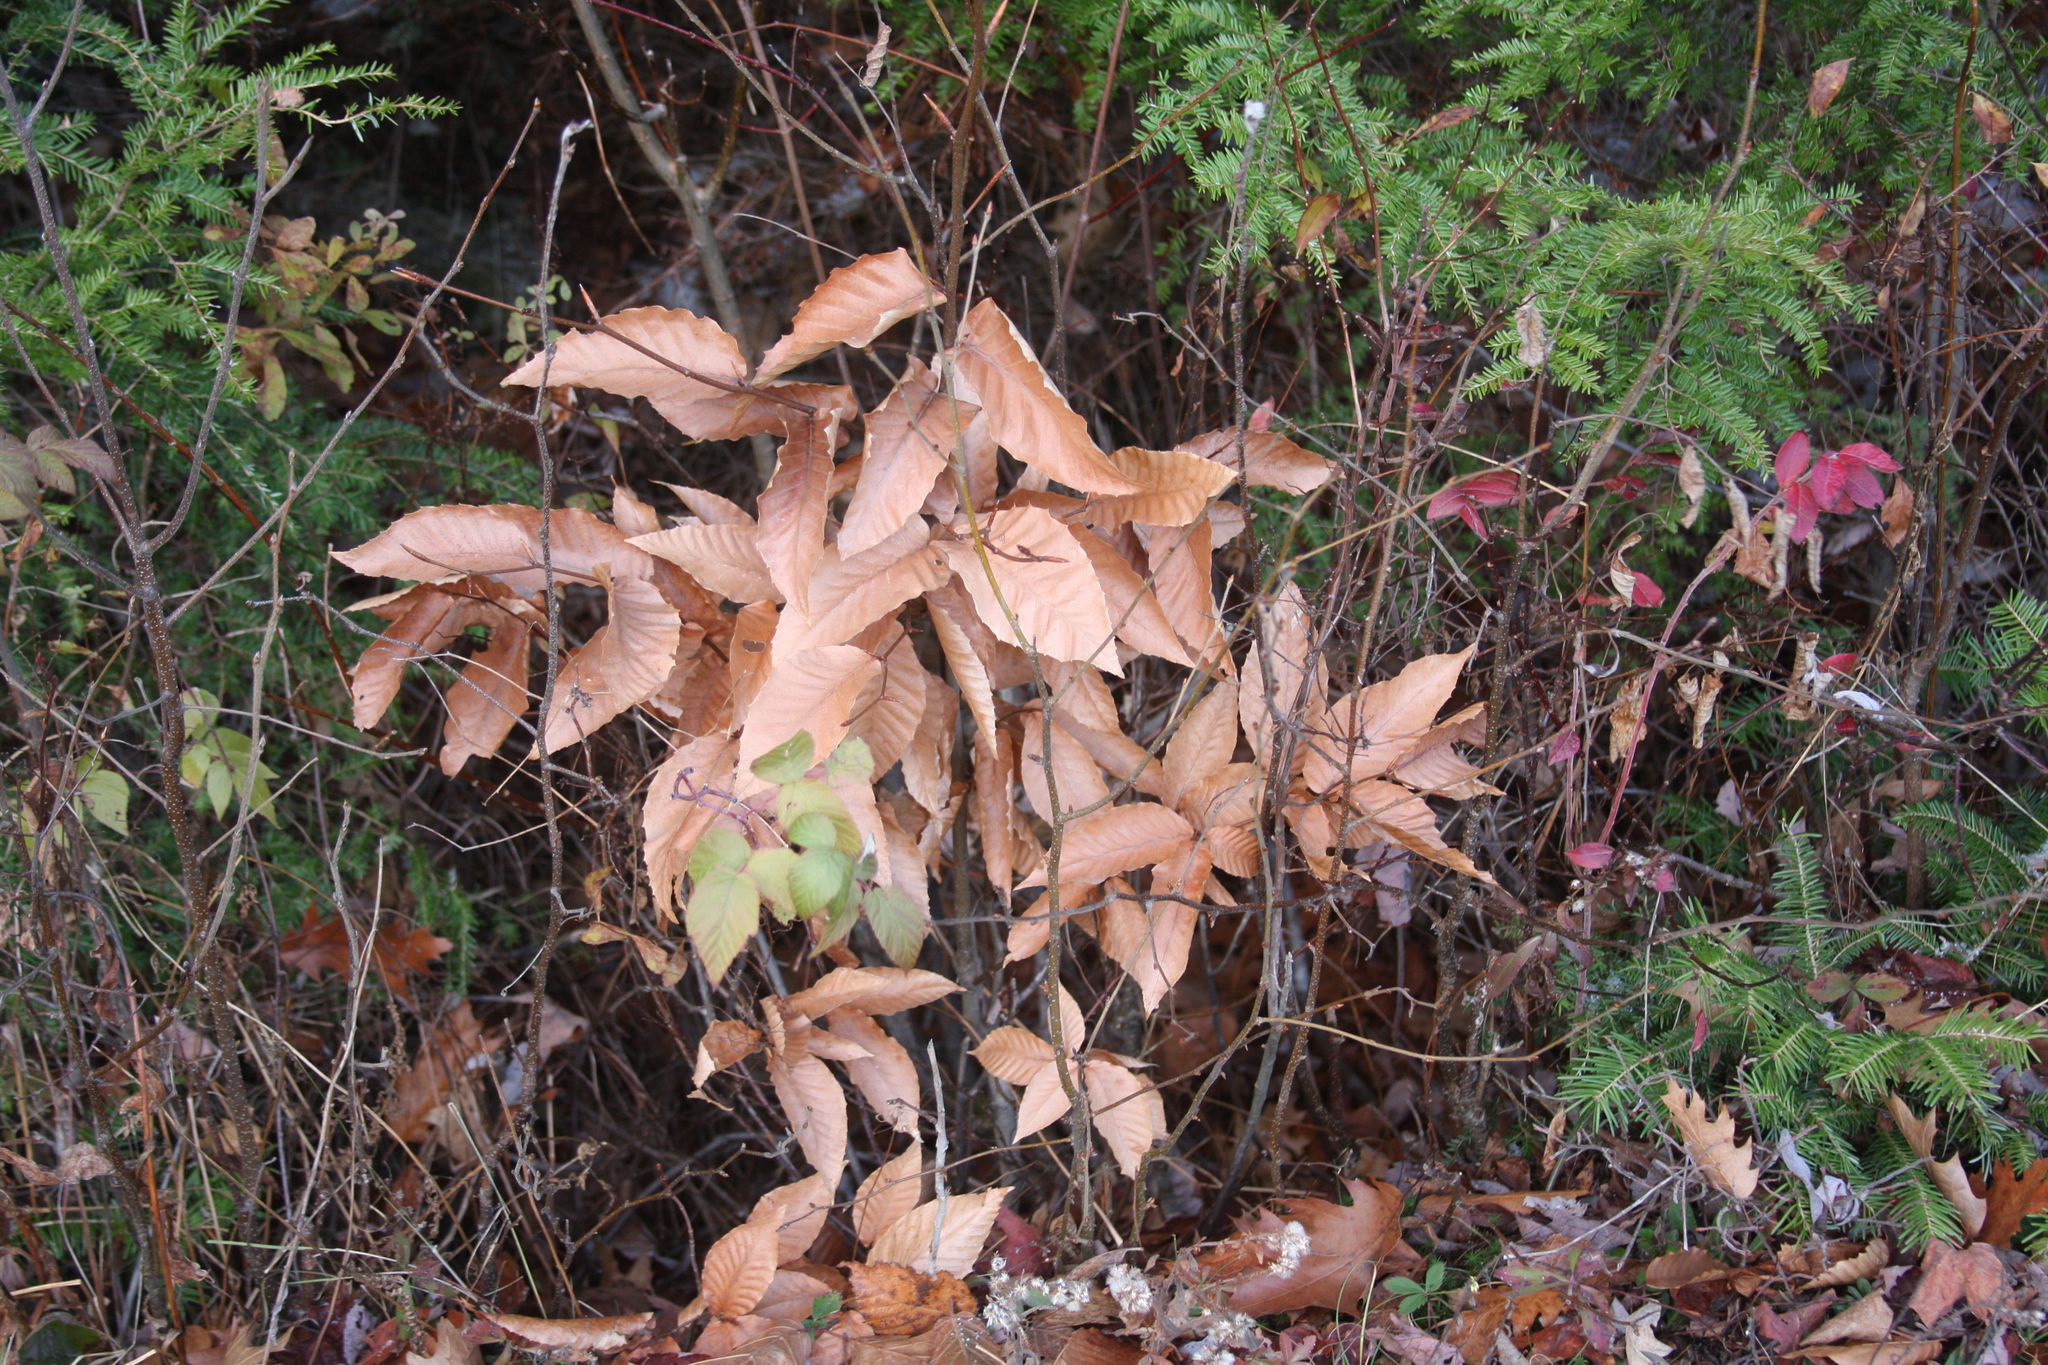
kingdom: Plantae
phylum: Tracheophyta
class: Magnoliopsida
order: Fagales
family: Fagaceae
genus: Fagus
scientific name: Fagus grandifolia
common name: American beech
